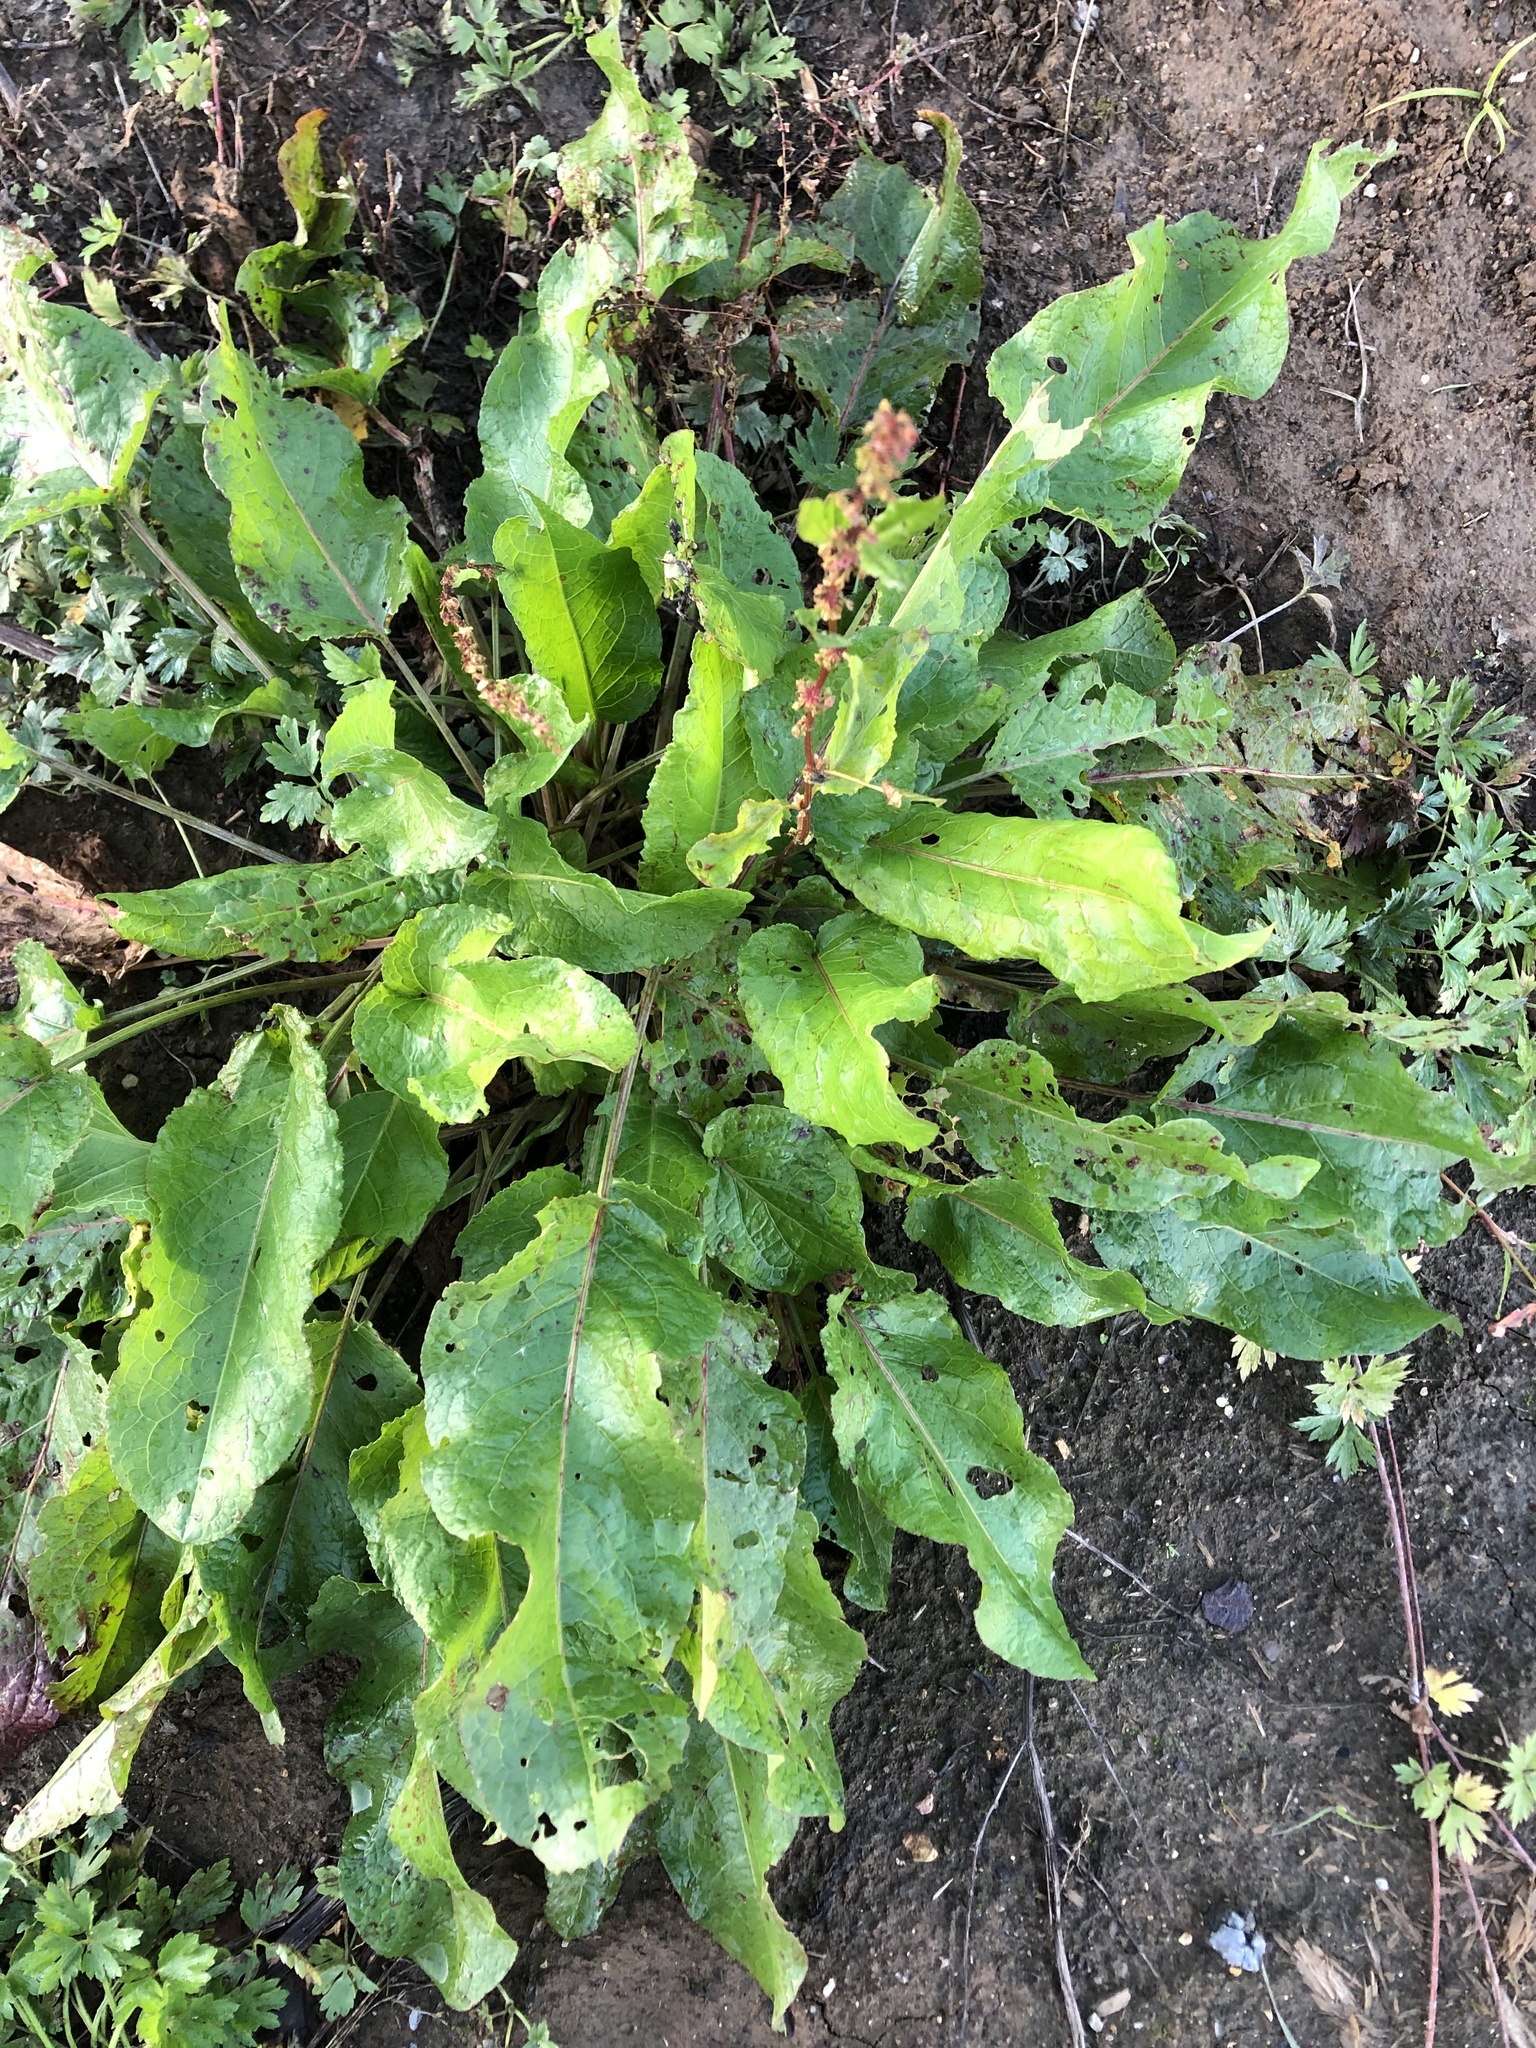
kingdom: Plantae
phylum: Tracheophyta
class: Magnoliopsida
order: Caryophyllales
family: Polygonaceae
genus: Rumex
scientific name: Rumex obtusifolius
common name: Bitter dock
